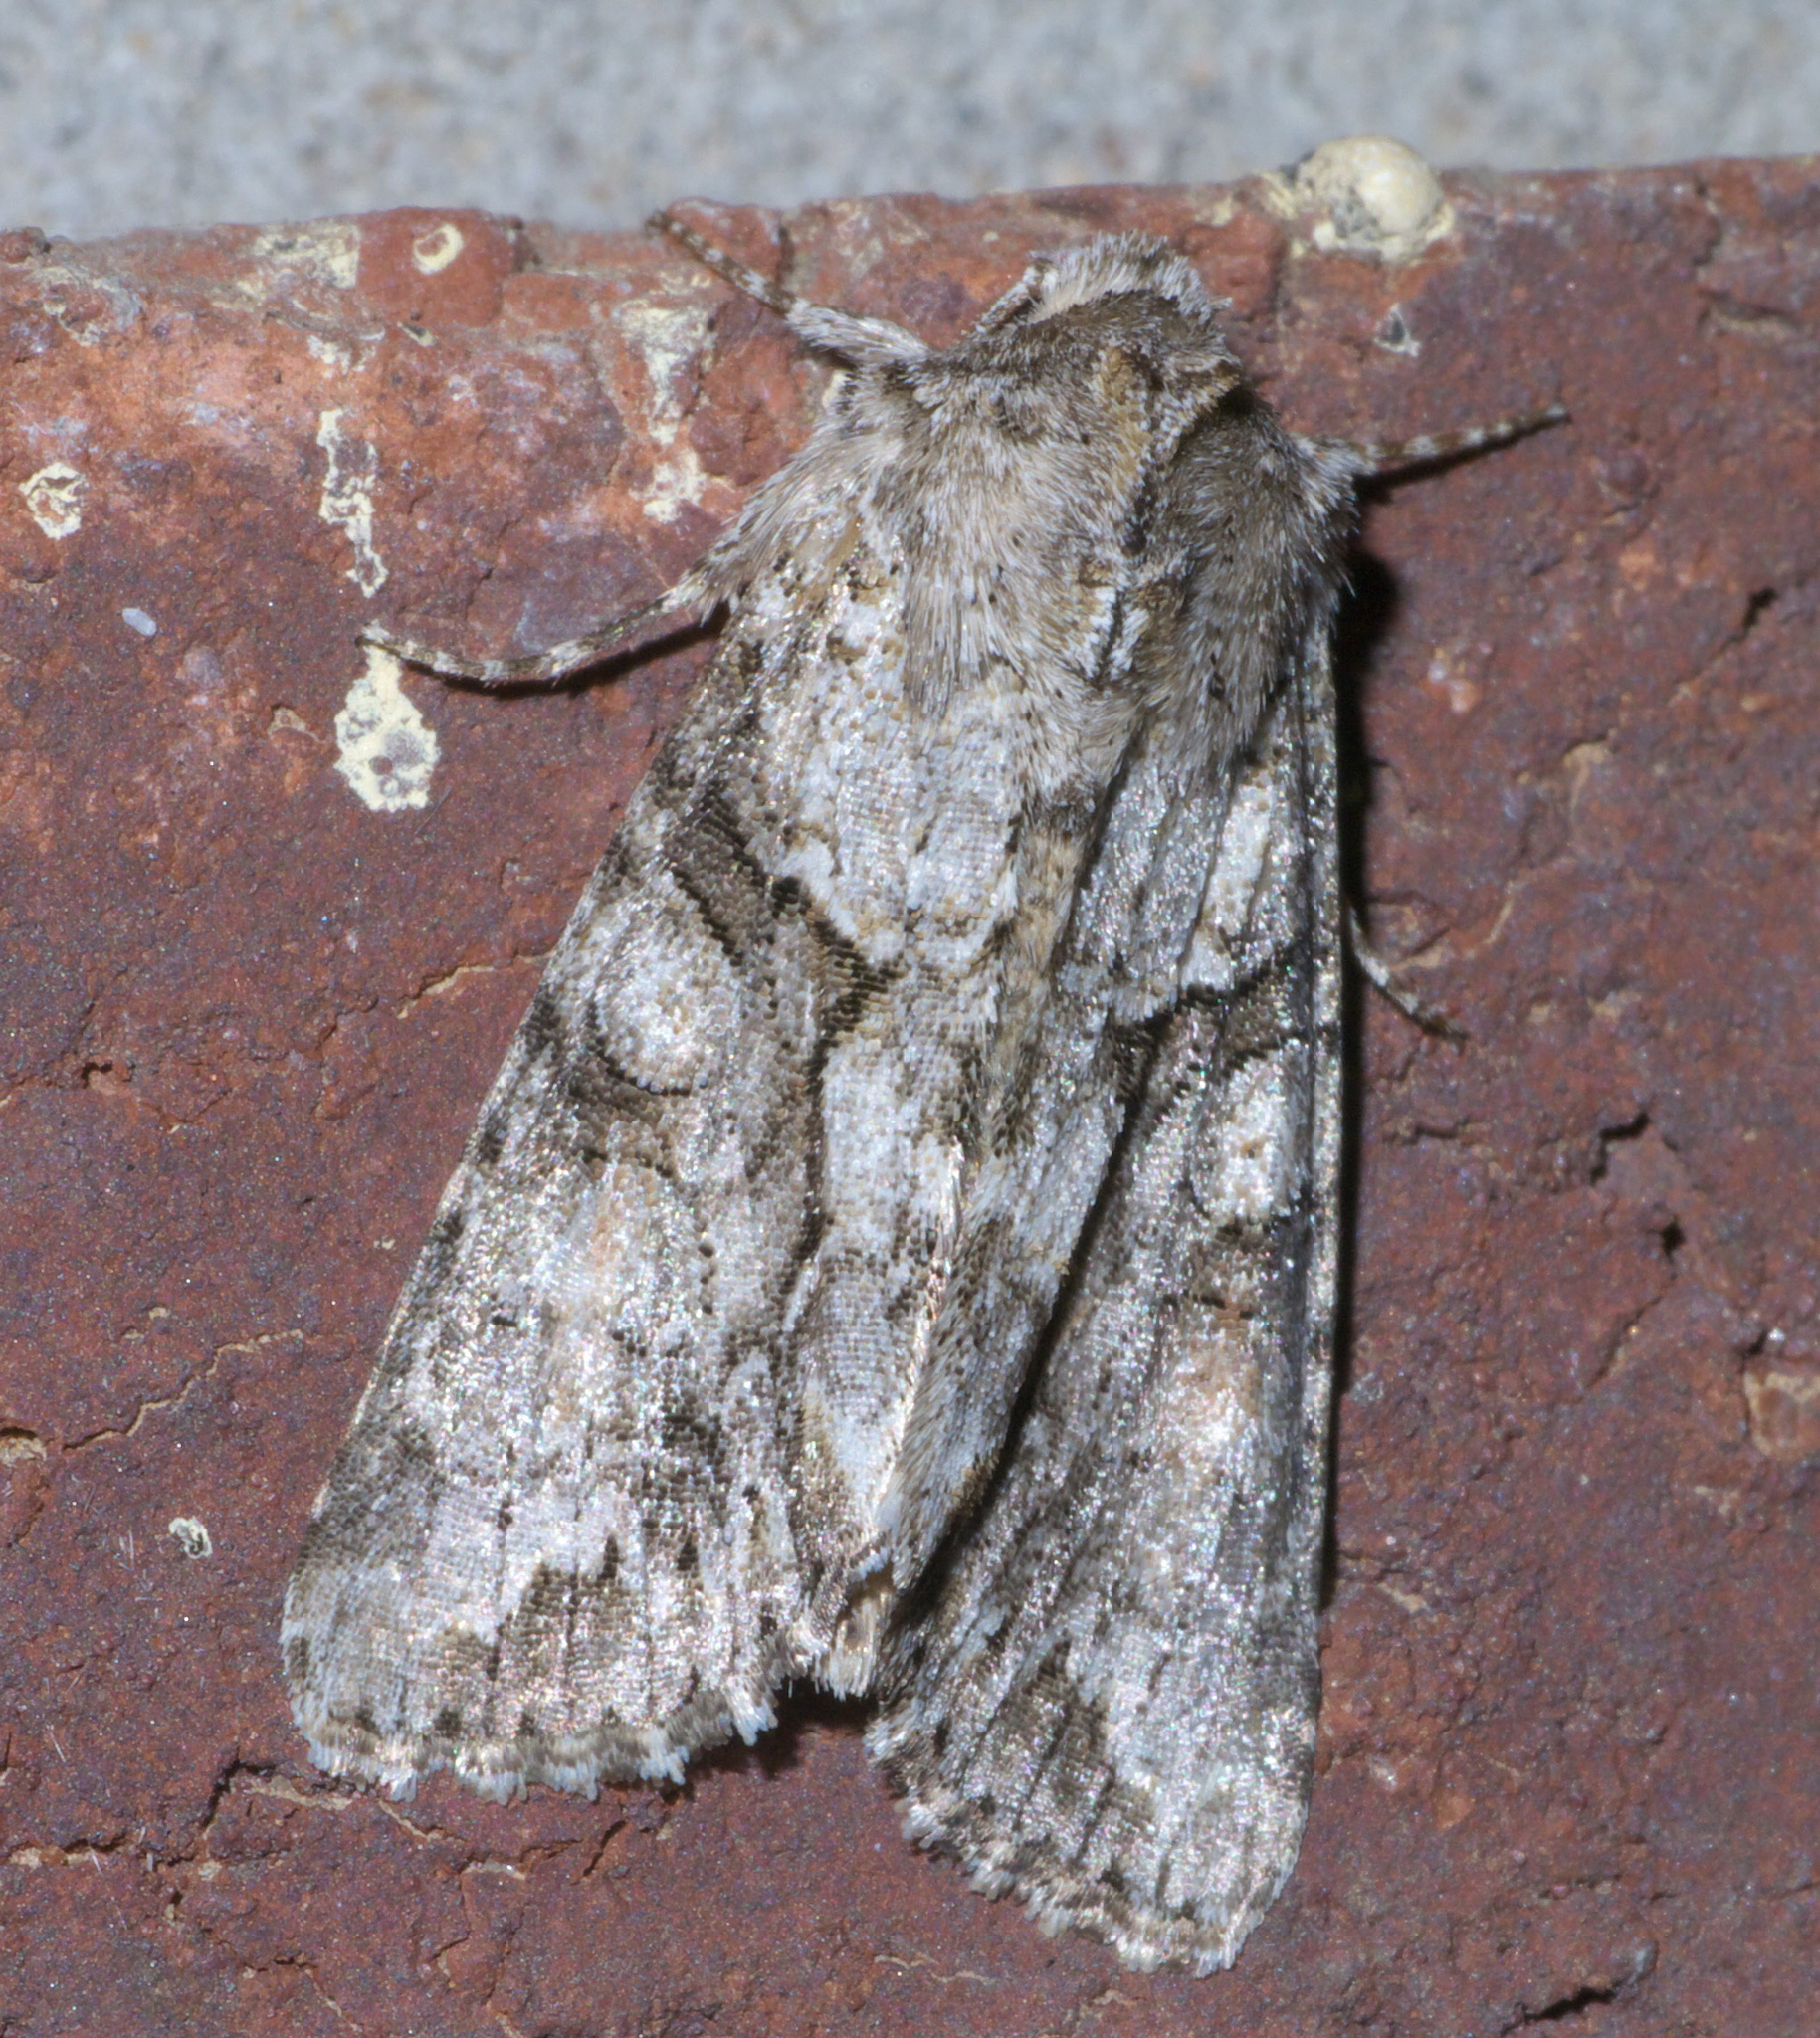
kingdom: Animalia
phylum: Arthropoda
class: Insecta
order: Lepidoptera
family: Noctuidae
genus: Achatia
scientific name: Achatia distincta
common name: Distinct quaker
